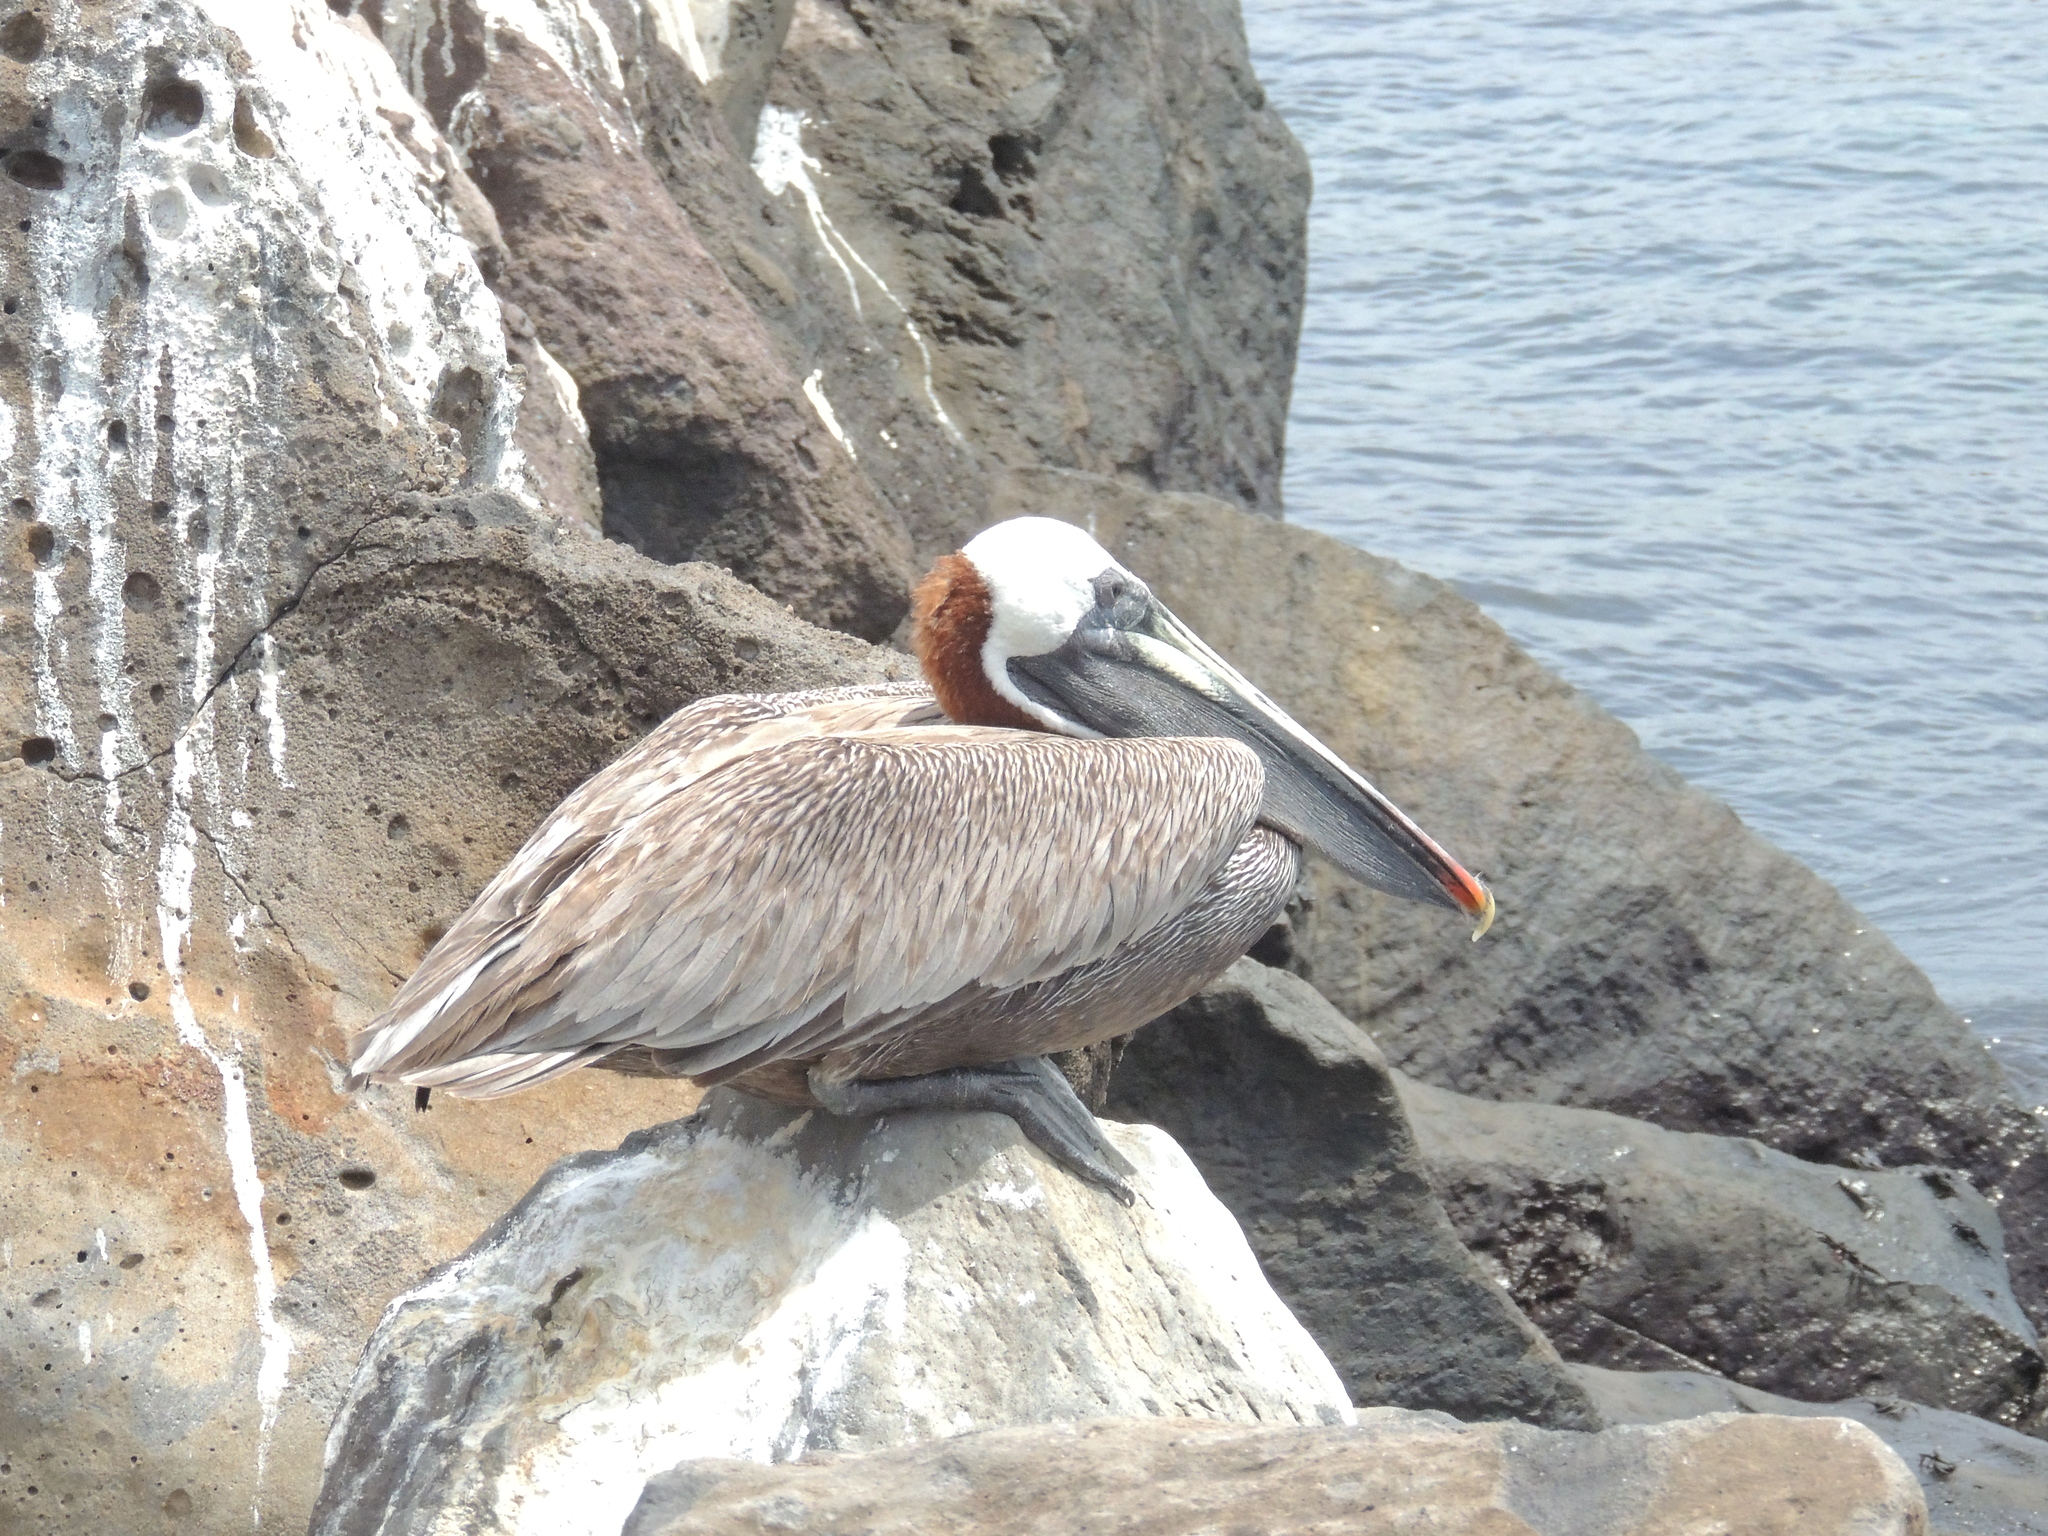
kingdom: Animalia
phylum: Chordata
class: Aves
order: Pelecaniformes
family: Pelecanidae
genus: Pelecanus
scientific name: Pelecanus occidentalis
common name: Brown pelican
